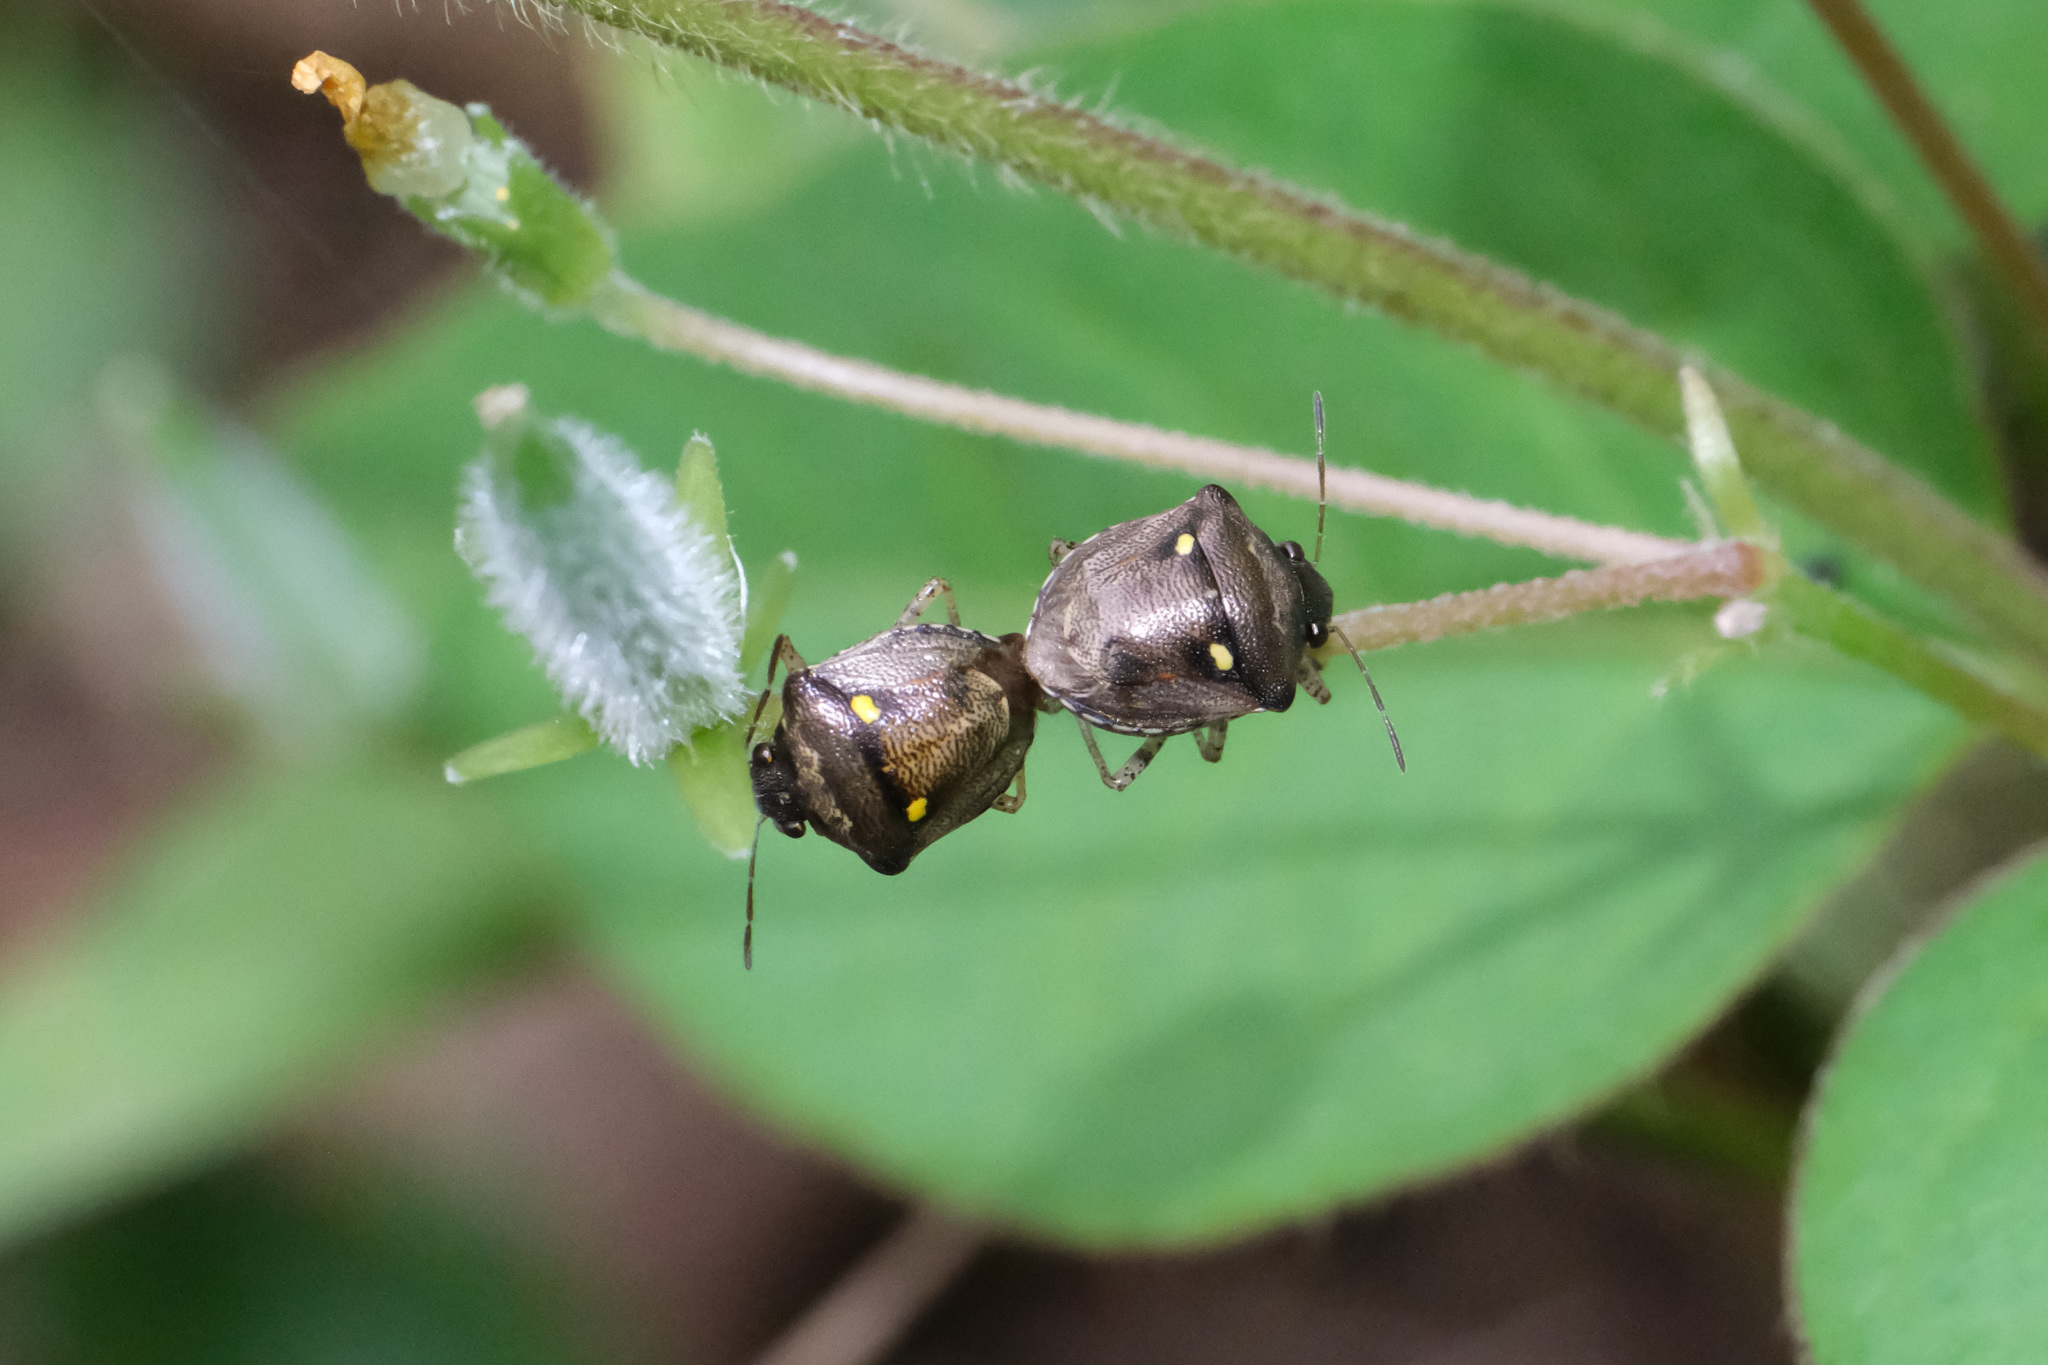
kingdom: Animalia
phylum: Arthropoda
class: Insecta
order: Hemiptera
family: Pentatomidae
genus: Eysarcoris
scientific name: Eysarcoris guttigerus
